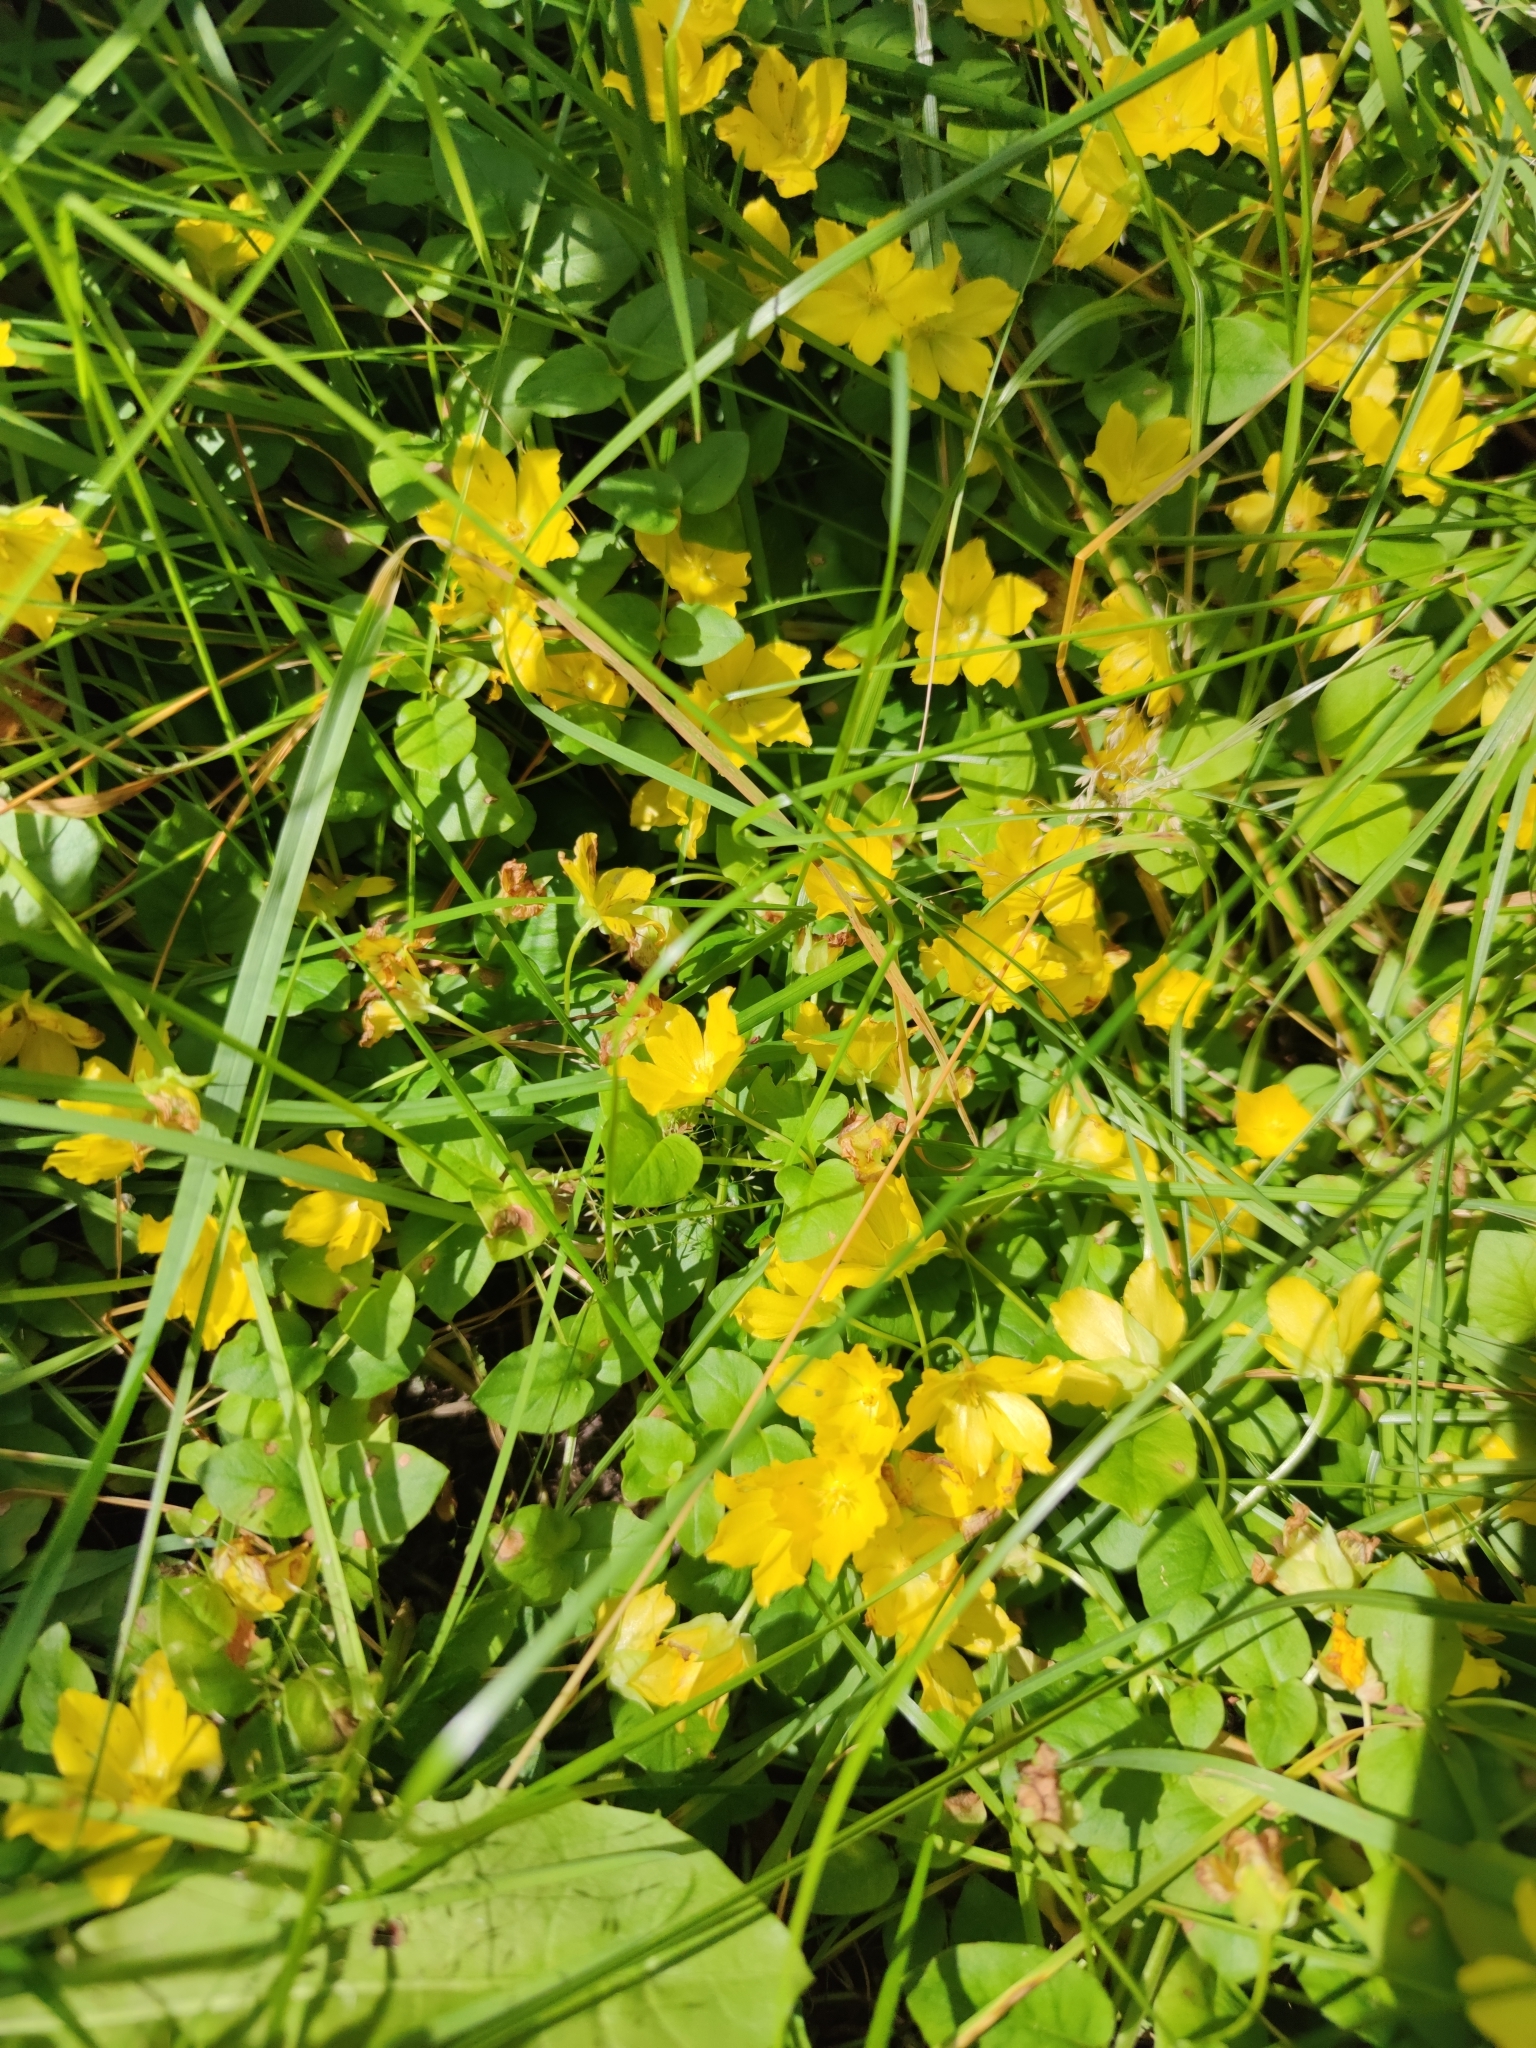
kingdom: Plantae
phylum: Tracheophyta
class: Magnoliopsida
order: Ericales
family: Primulaceae
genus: Lysimachia
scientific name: Lysimachia nummularia
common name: Moneywort
